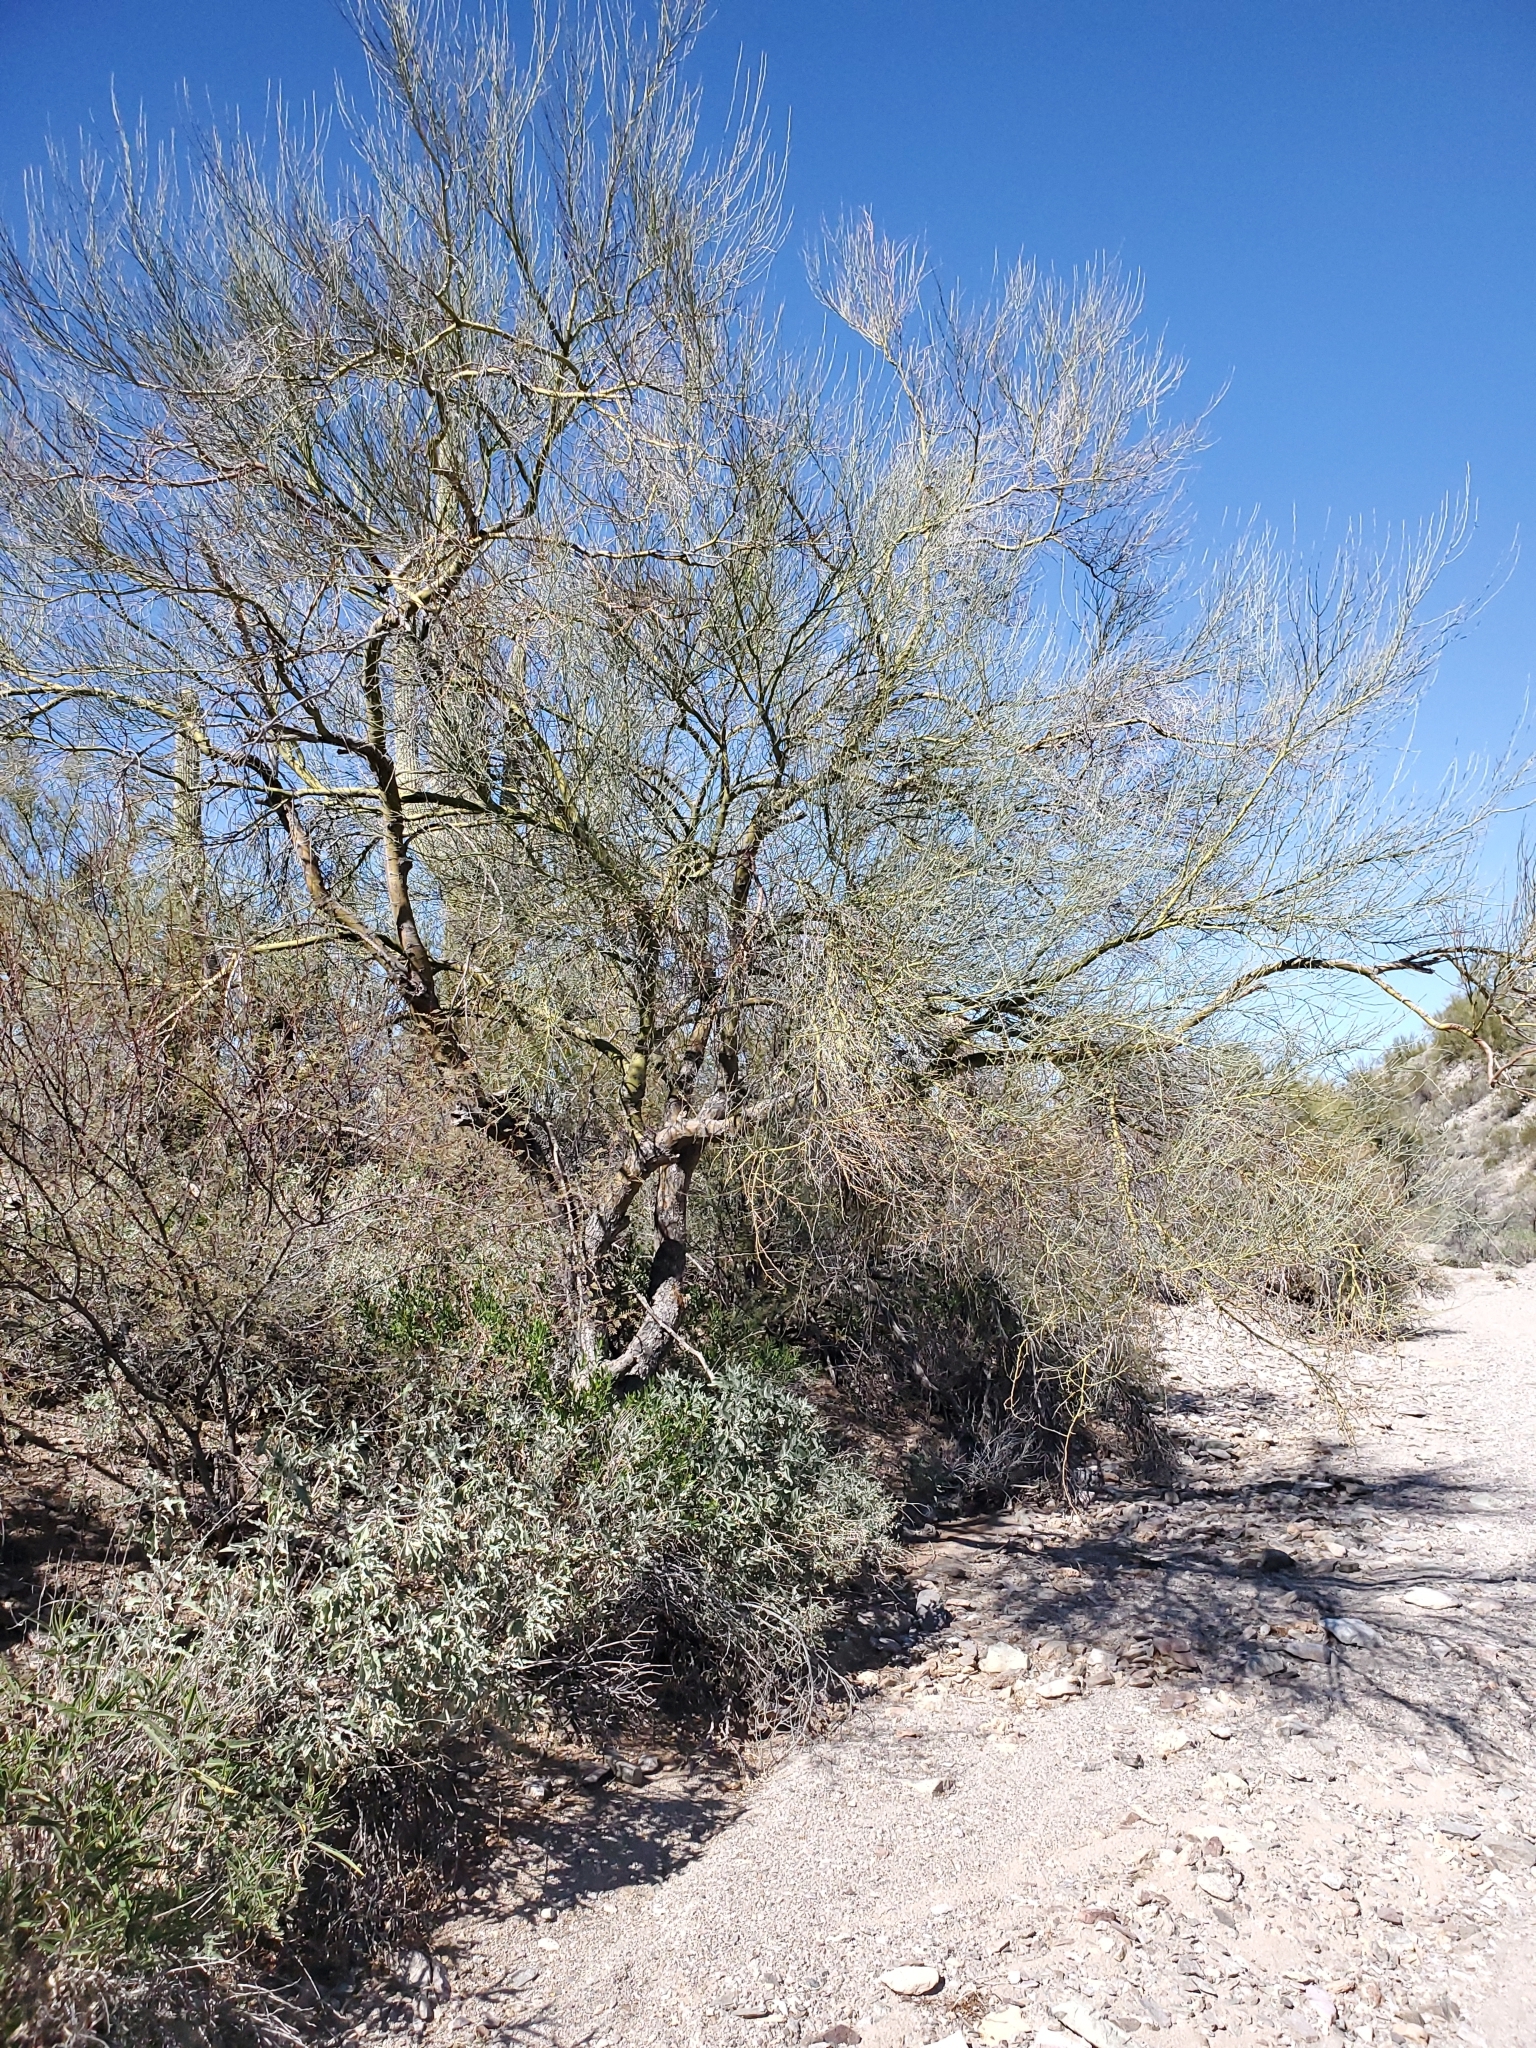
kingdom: Plantae
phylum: Tracheophyta
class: Magnoliopsida
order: Fabales
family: Fabaceae
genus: Parkinsonia
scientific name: Parkinsonia florida
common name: Blue paloverde
